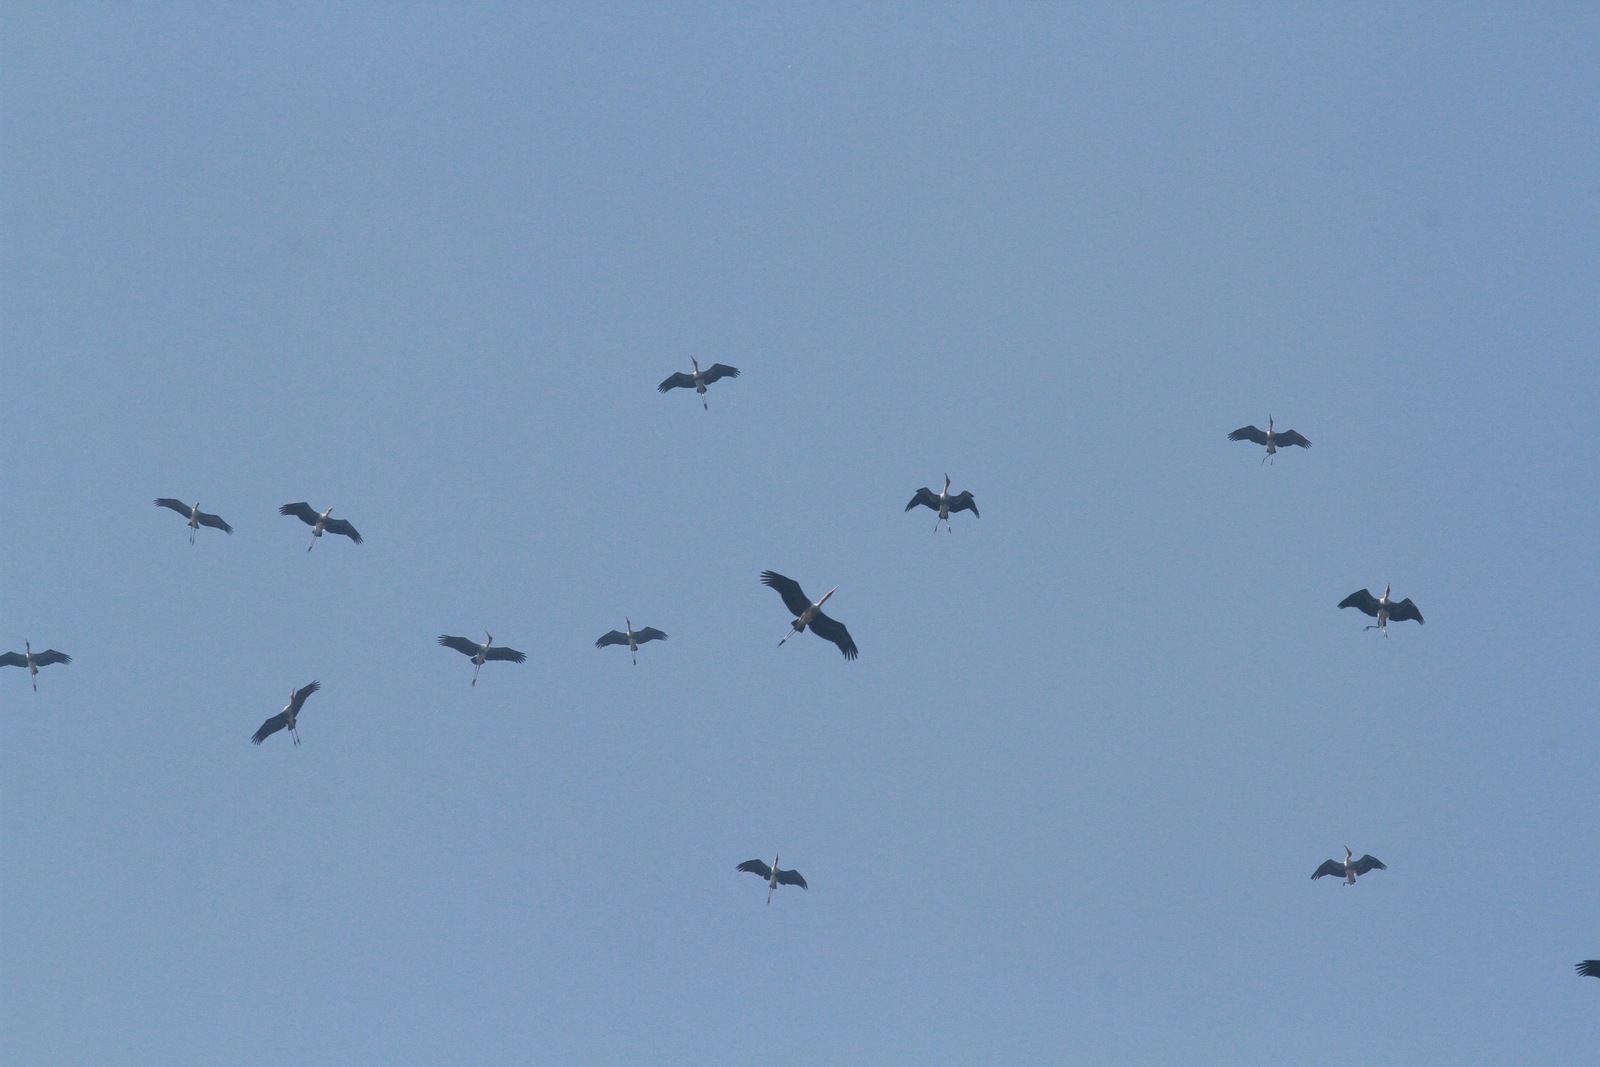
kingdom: Animalia
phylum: Chordata
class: Aves
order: Ciconiiformes
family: Ciconiidae
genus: Mycteria
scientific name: Mycteria leucocephala
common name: Painted stork
